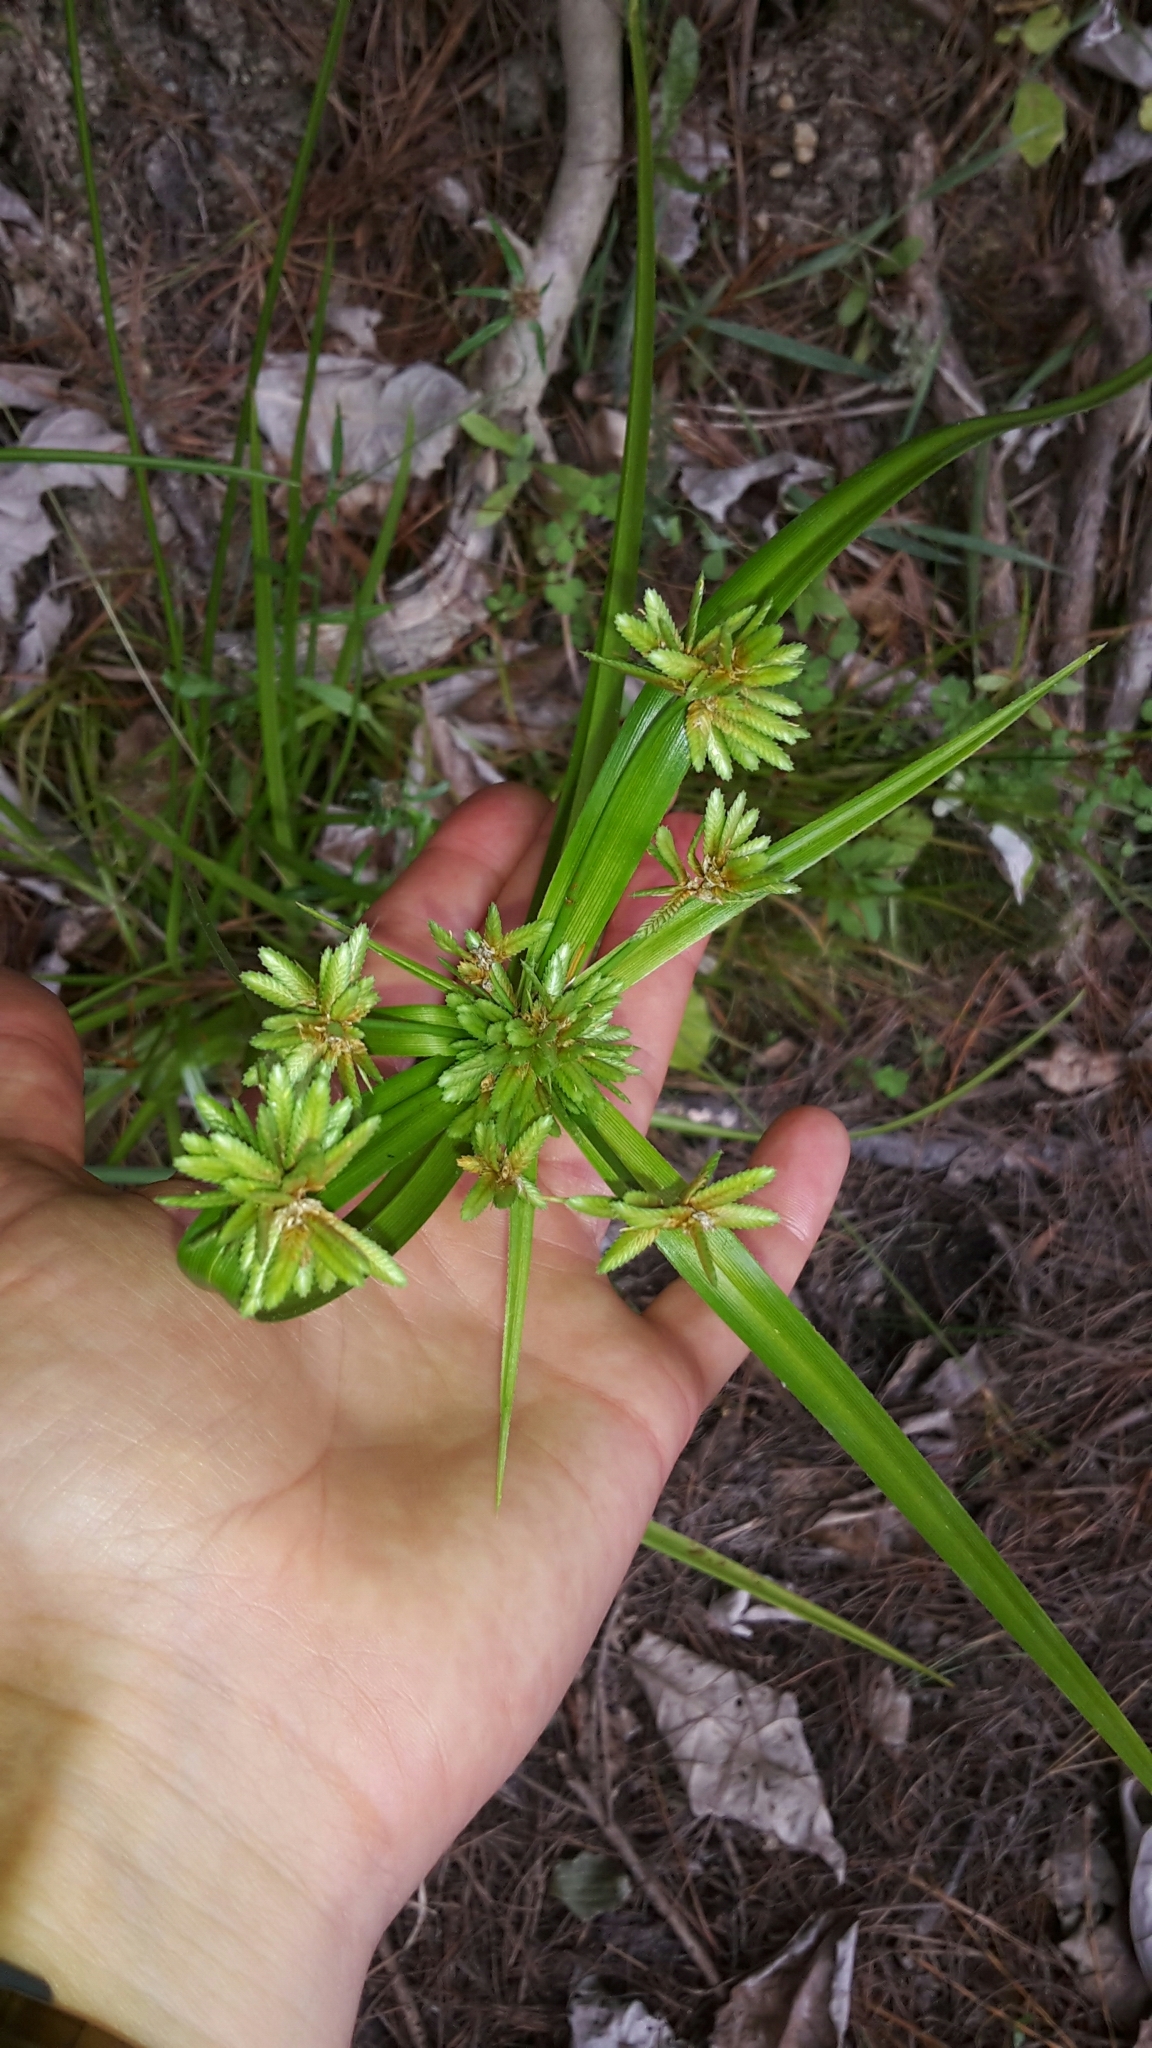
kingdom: Plantae
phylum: Tracheophyta
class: Liliopsida
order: Poales
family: Cyperaceae
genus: Cyperus
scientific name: Cyperus eragrostis
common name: Tall flatsedge
